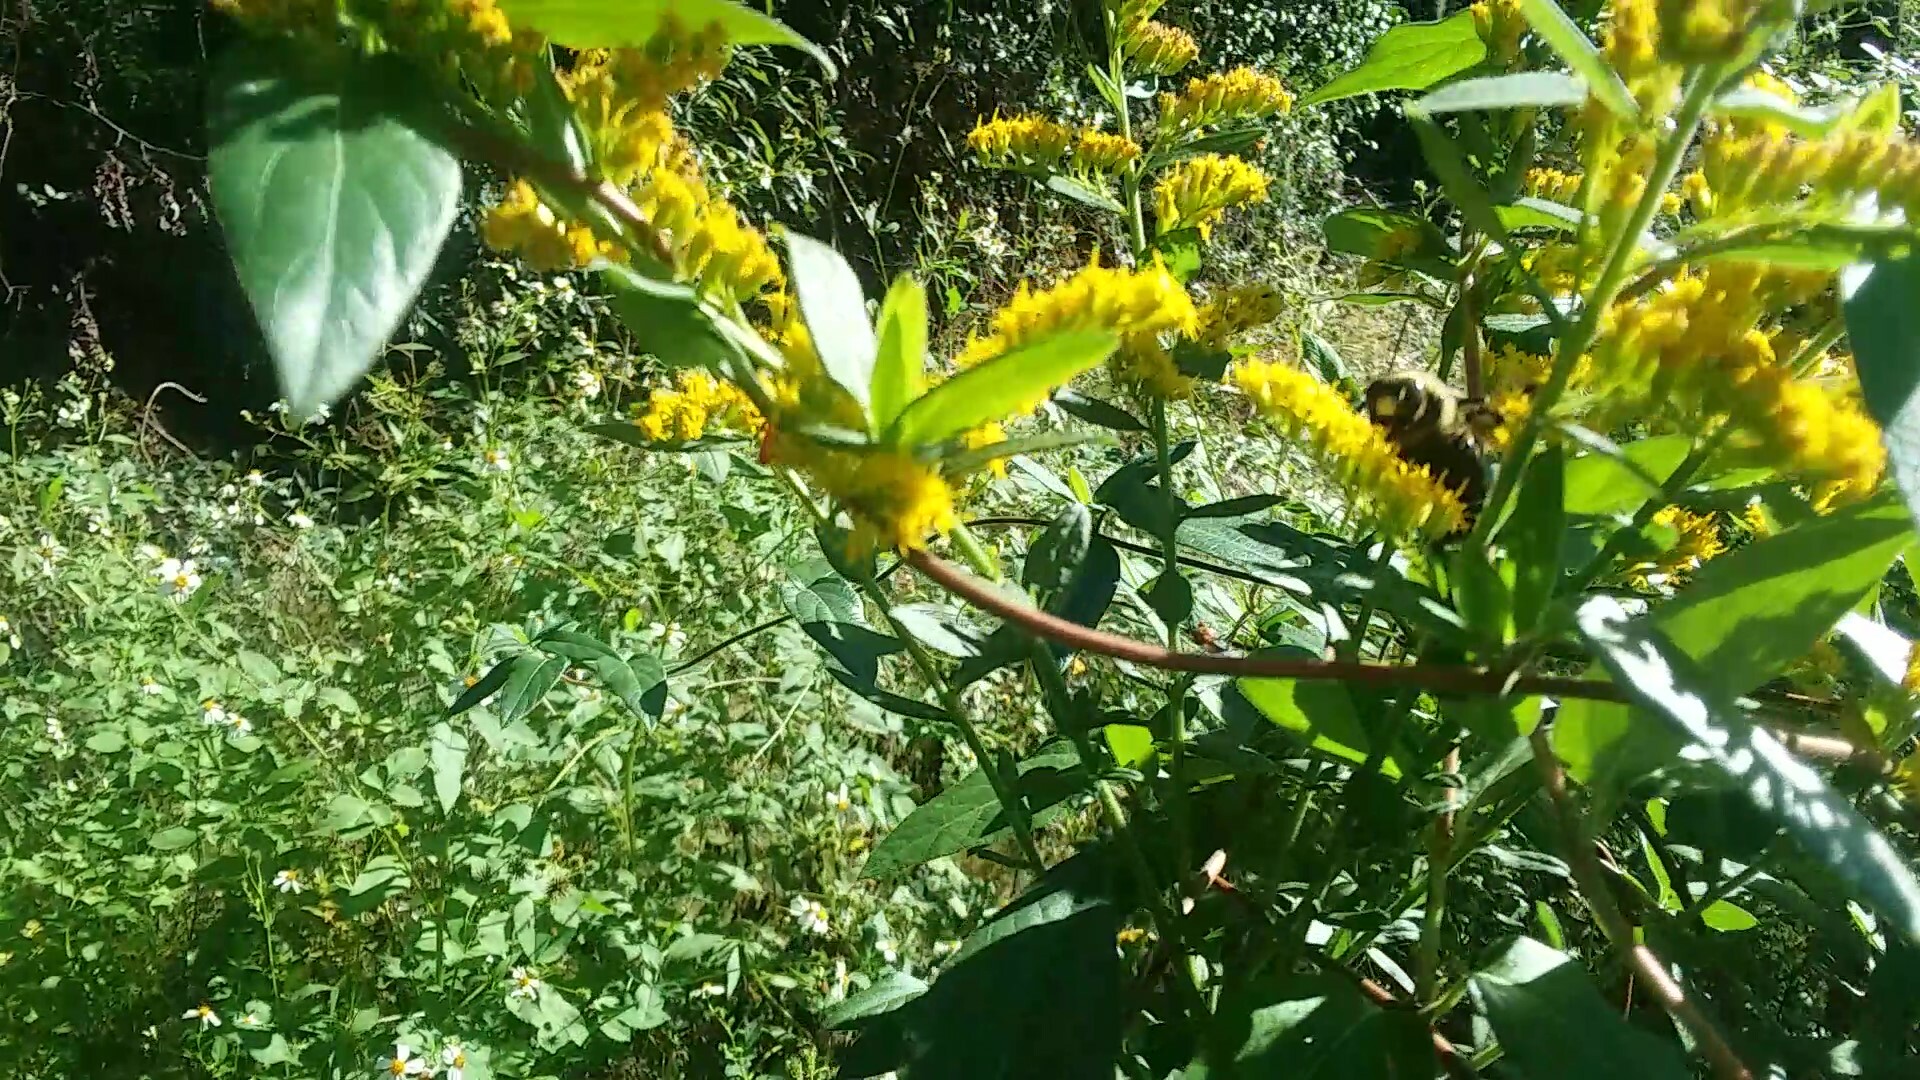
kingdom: Animalia
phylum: Arthropoda
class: Insecta
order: Hymenoptera
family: Apidae
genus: Xylocopa
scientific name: Xylocopa virginica
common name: Carpenter bee
